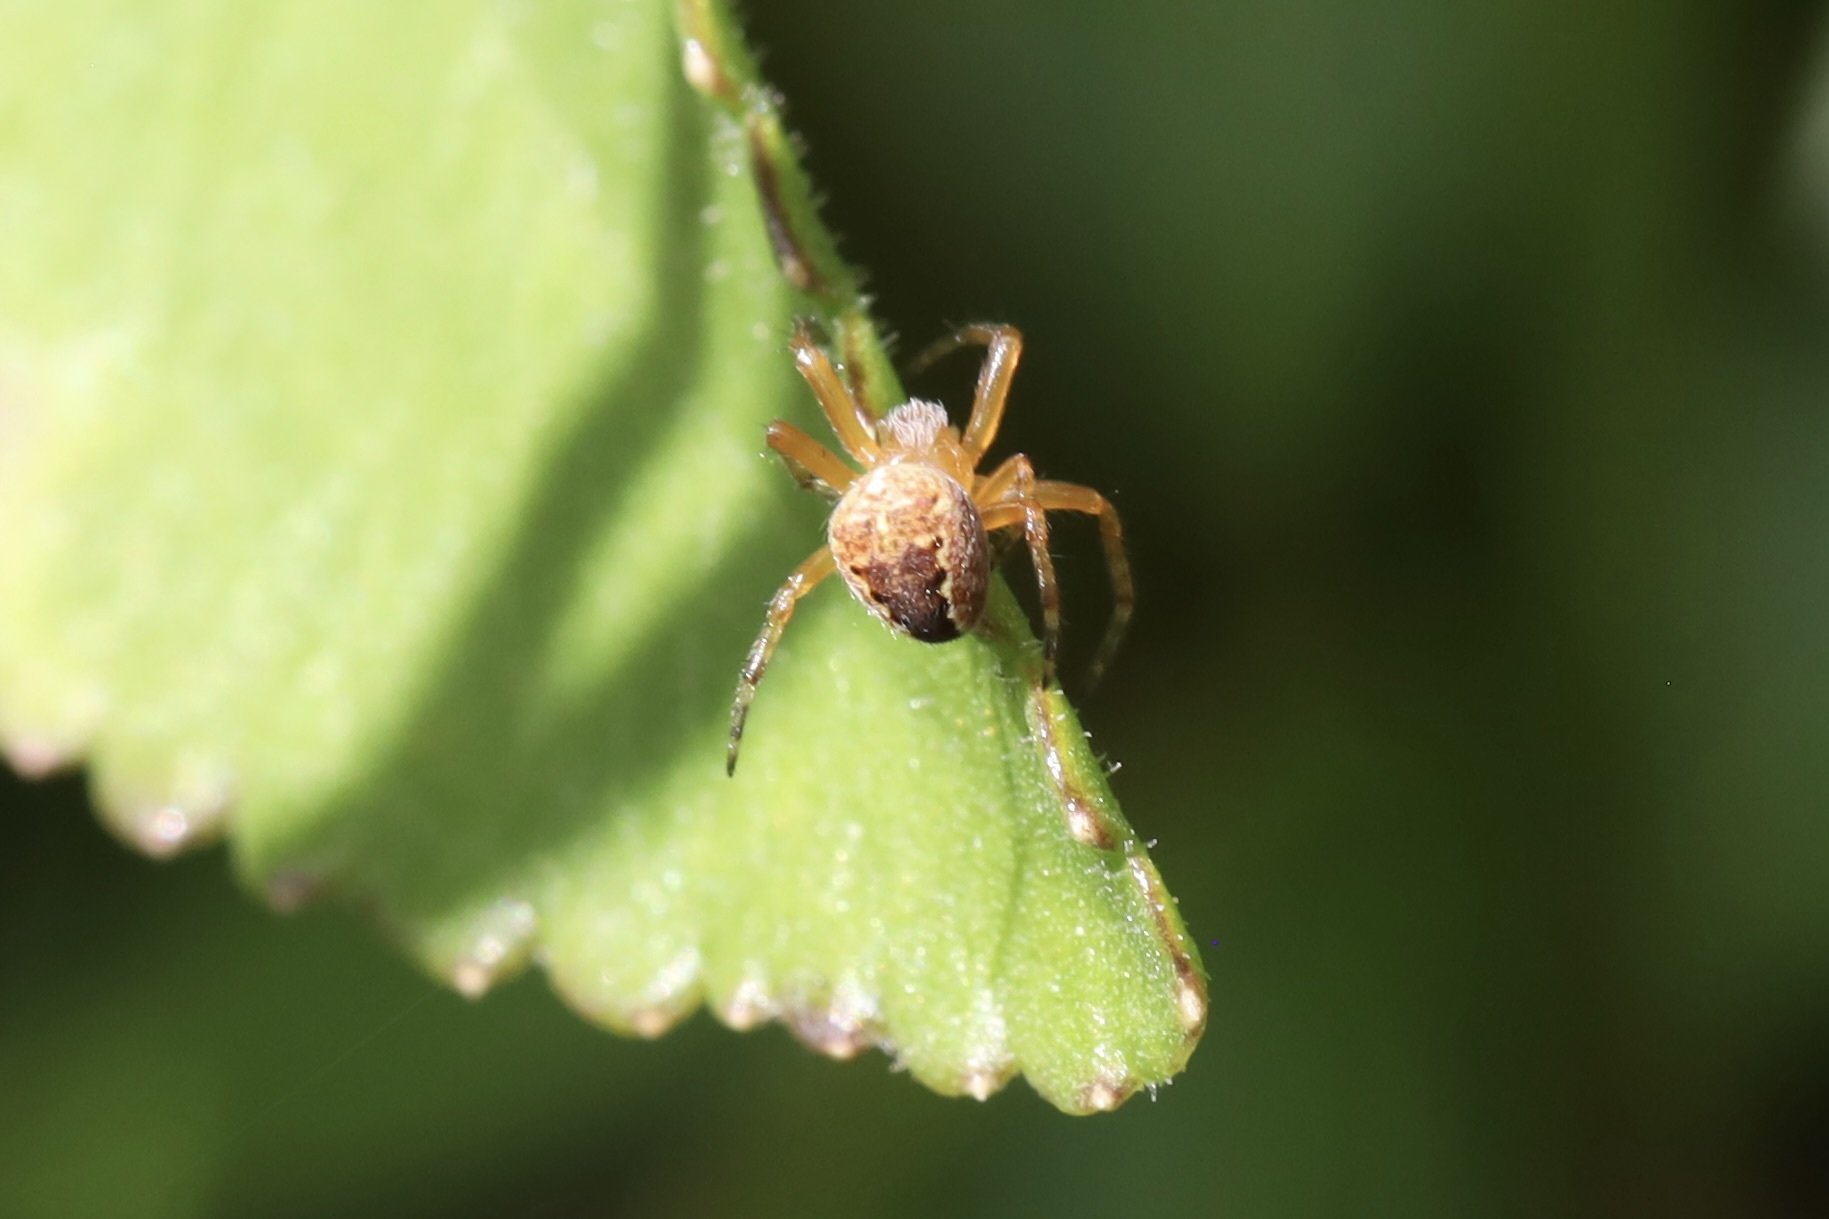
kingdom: Animalia
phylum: Arthropoda
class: Arachnida
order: Araneae
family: Araneidae
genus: Araneus
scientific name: Araneus diadematus
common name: Cross orbweaver
